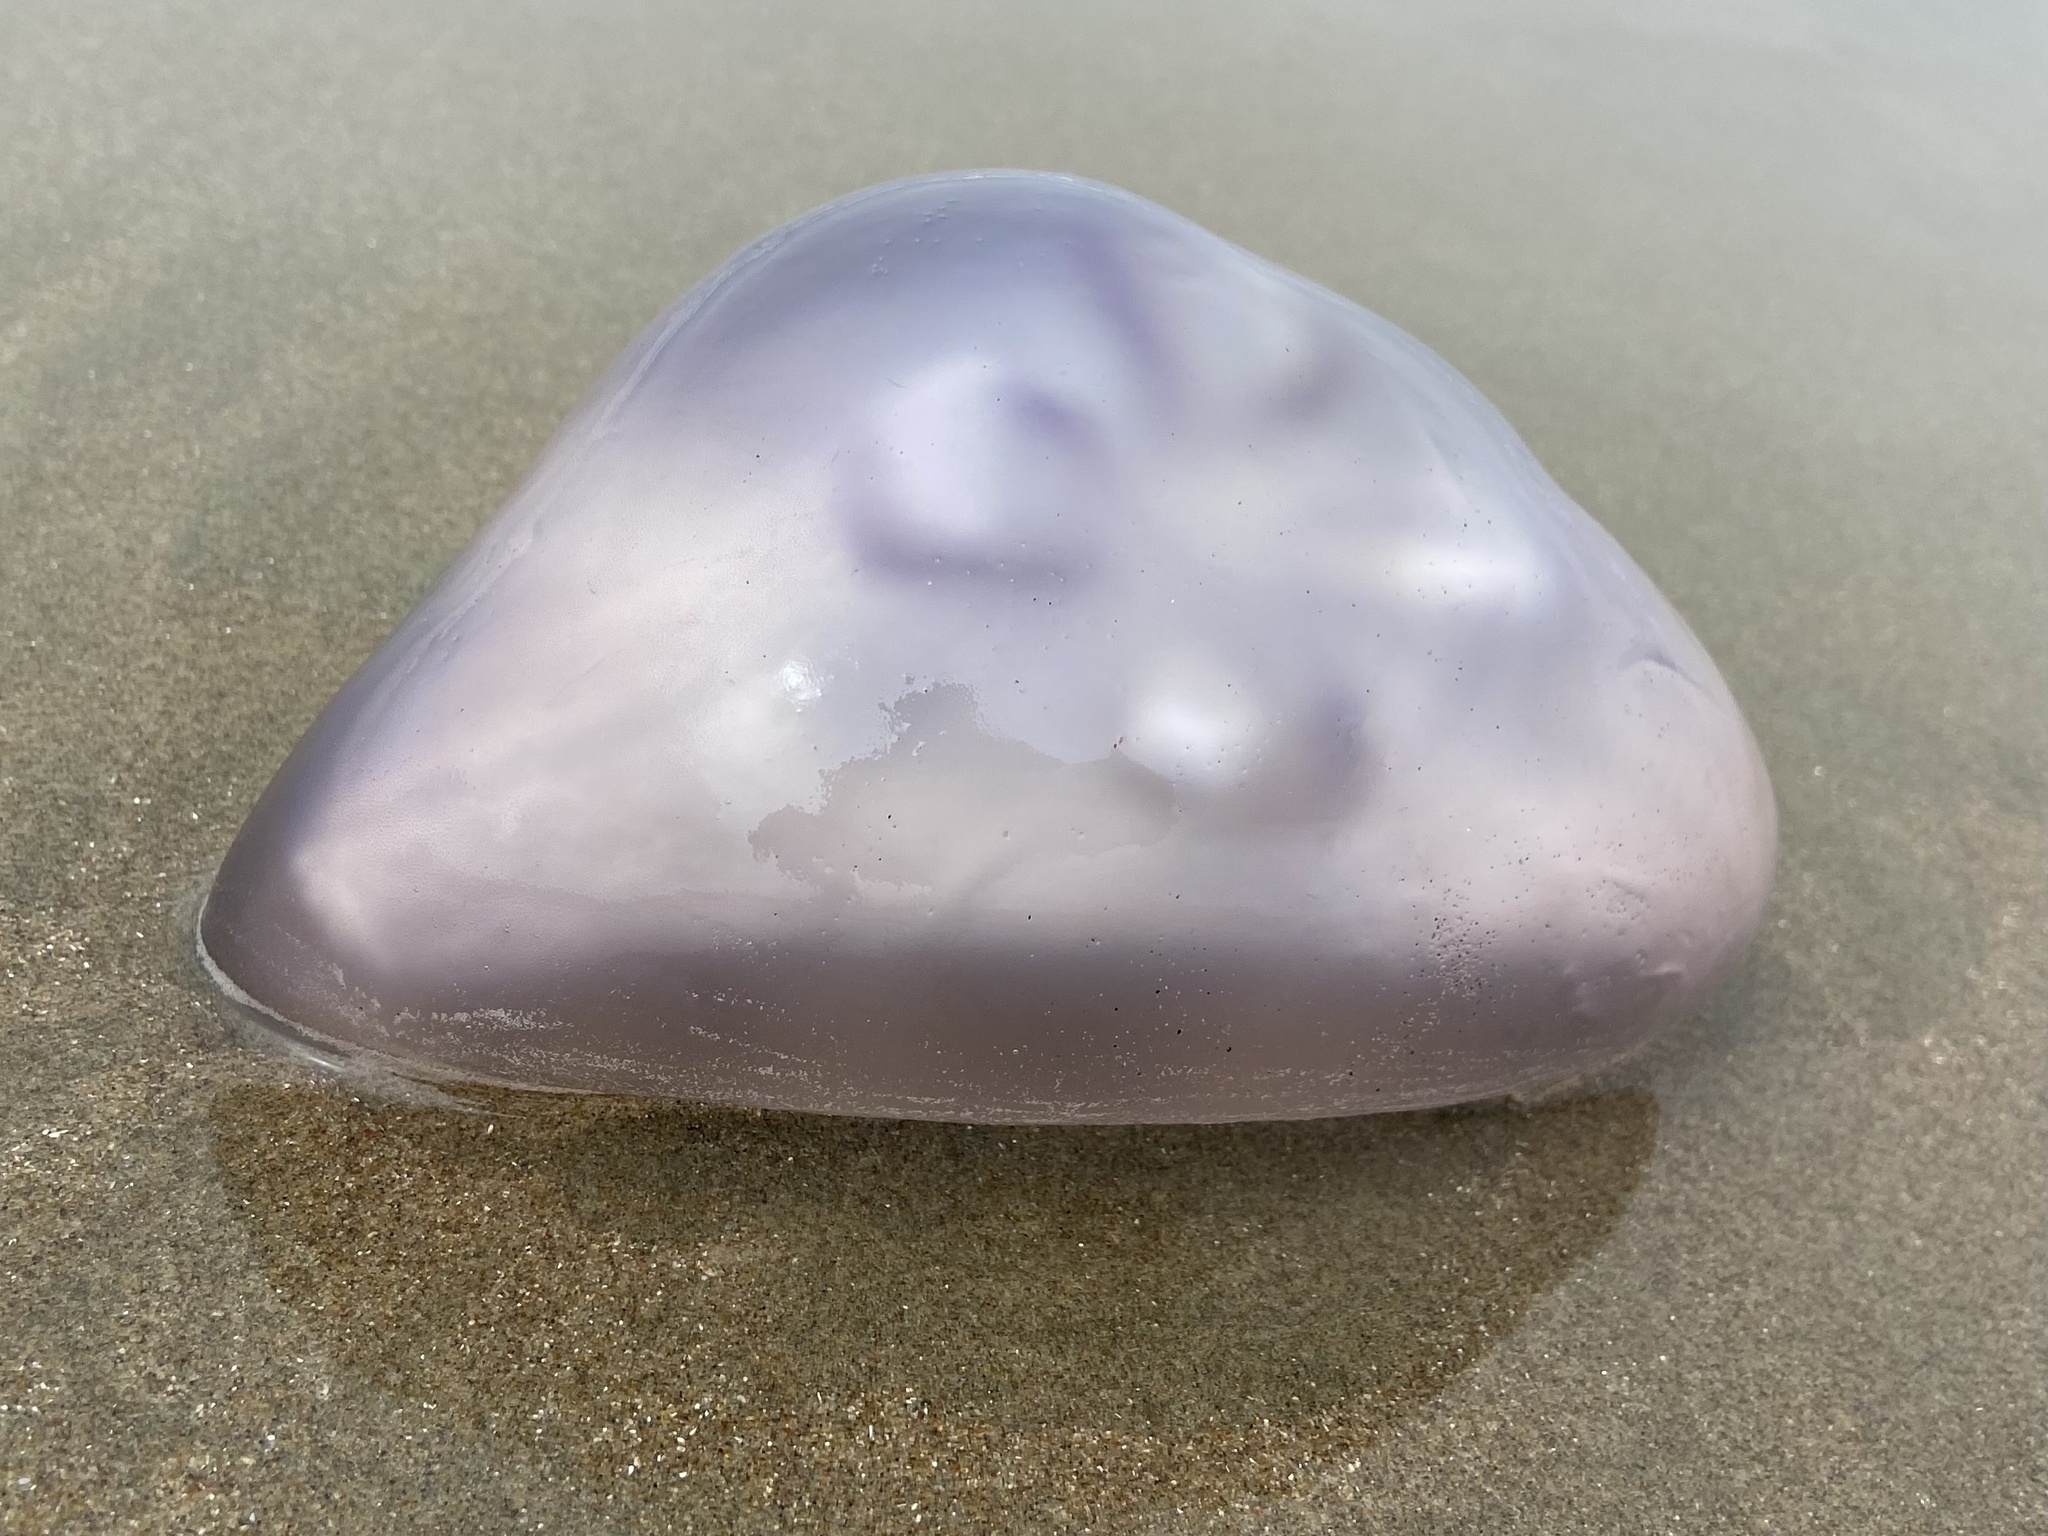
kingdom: Animalia
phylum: Cnidaria
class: Scyphozoa
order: Semaeostomeae
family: Ulmaridae
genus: Aurelia
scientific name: Aurelia labiata
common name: Pacific moon jelly
